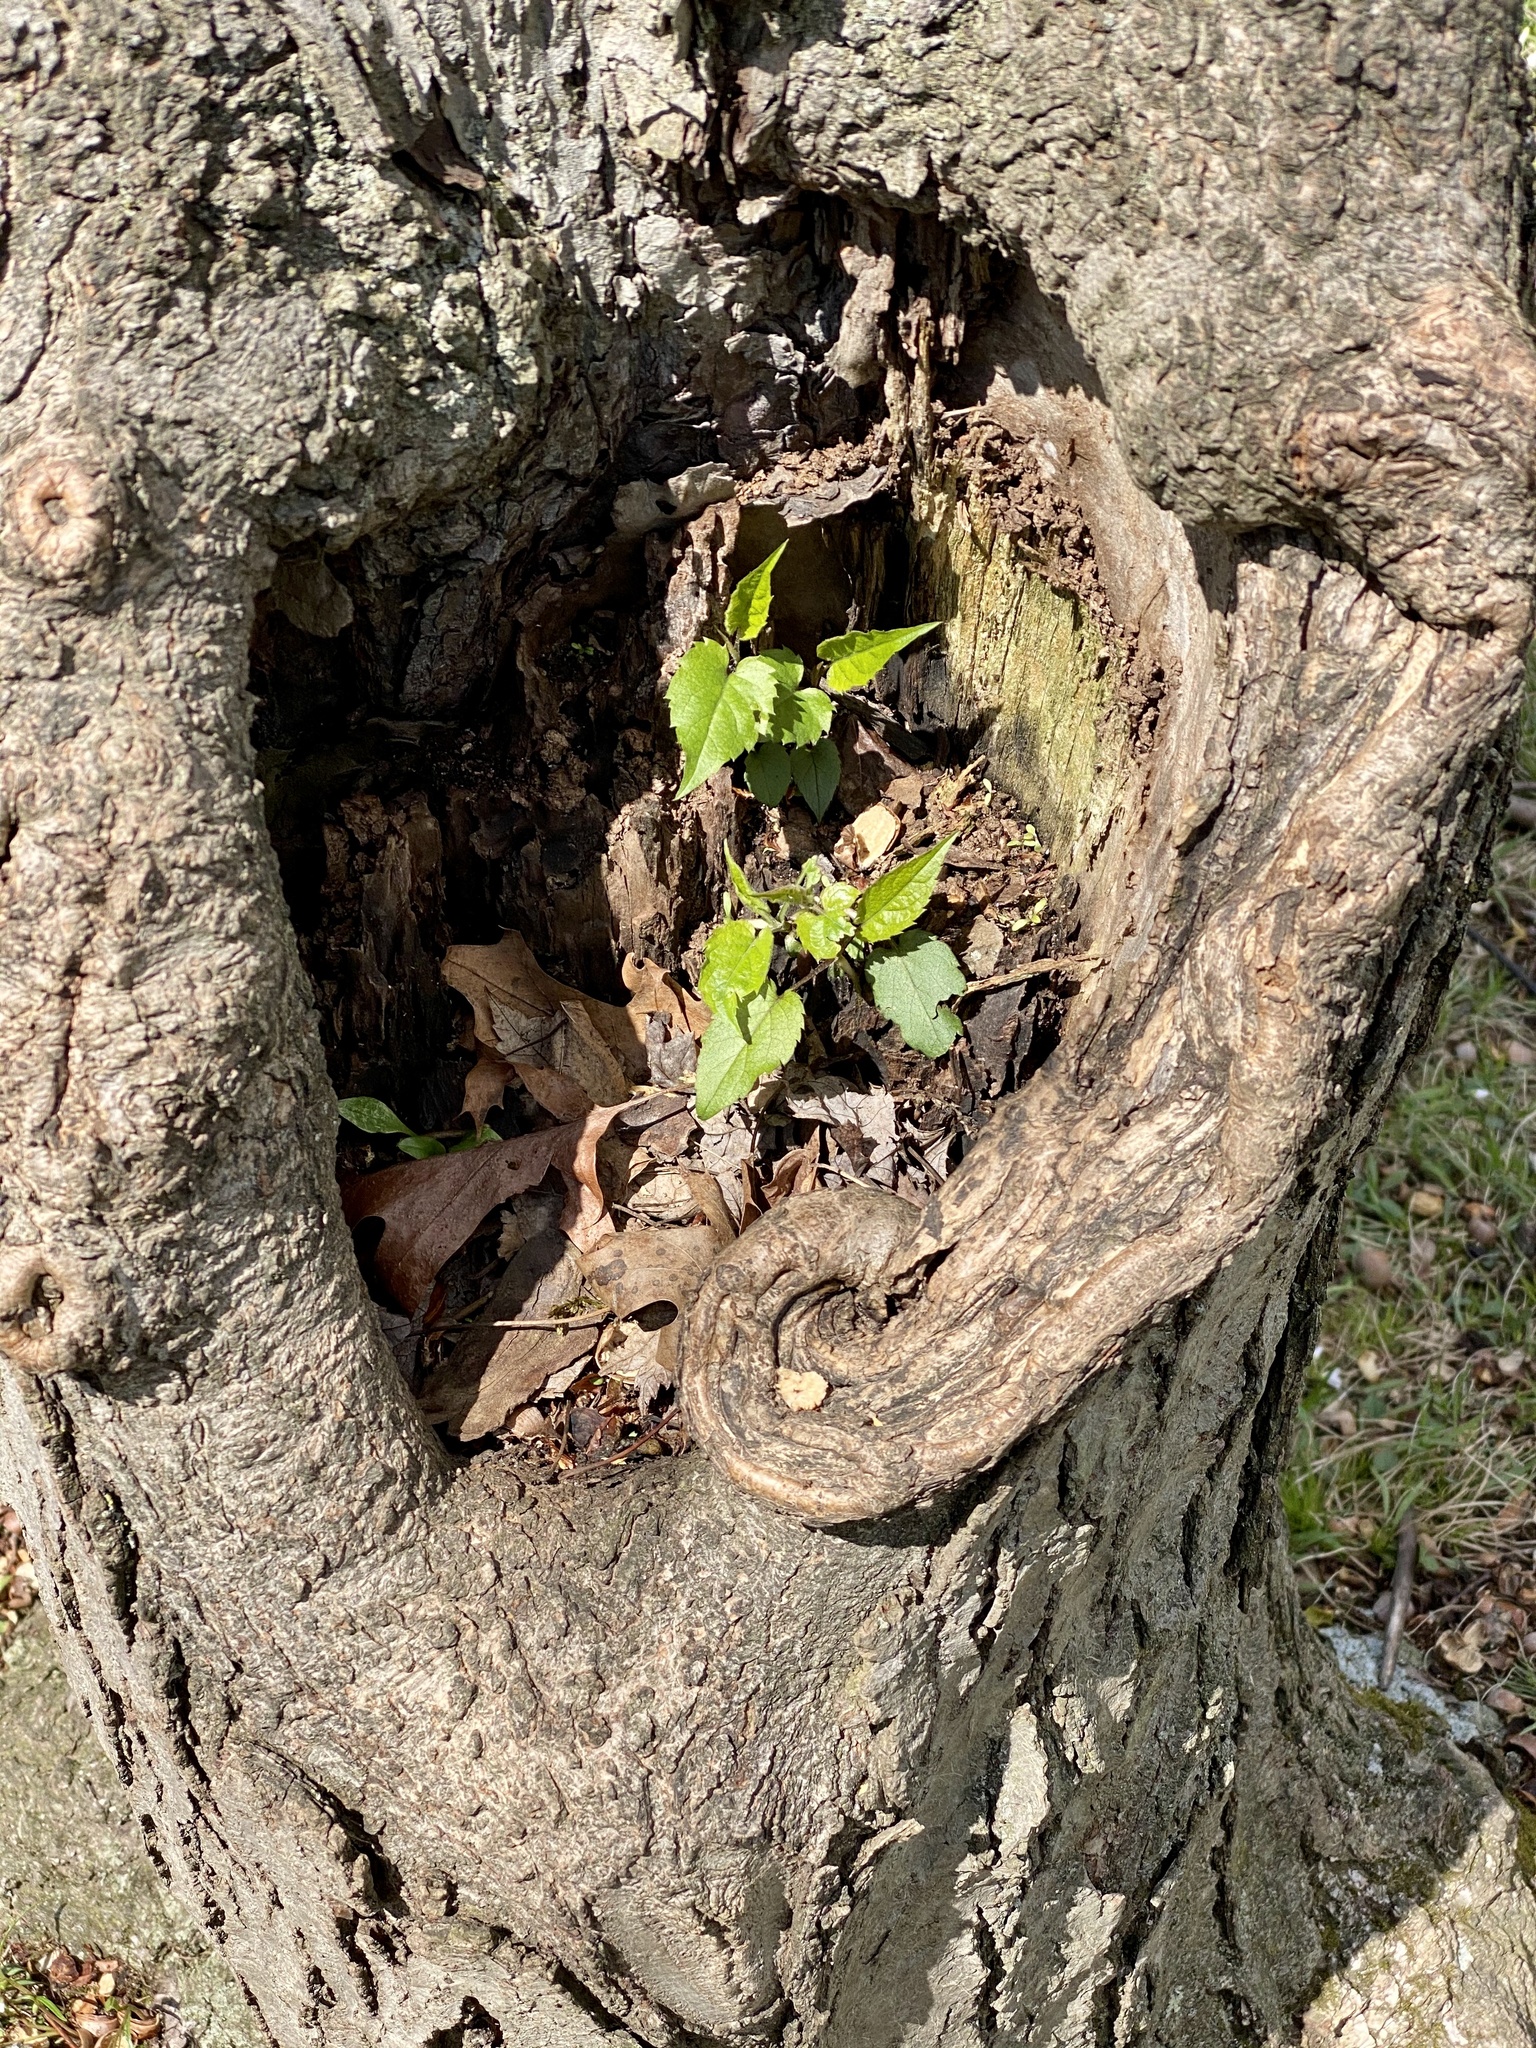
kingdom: Plantae
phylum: Tracheophyta
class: Magnoliopsida
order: Asterales
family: Asteraceae
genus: Eurybia
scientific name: Eurybia divaricata
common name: White wood aster
